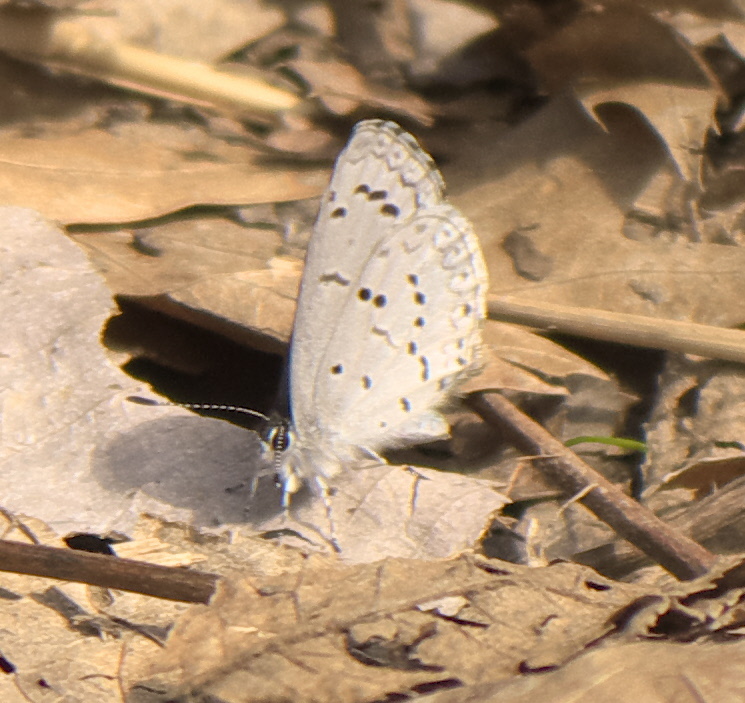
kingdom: Animalia
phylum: Arthropoda
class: Insecta
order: Lepidoptera
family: Lycaenidae
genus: Celastrina
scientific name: Celastrina ladon
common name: Spring azure
